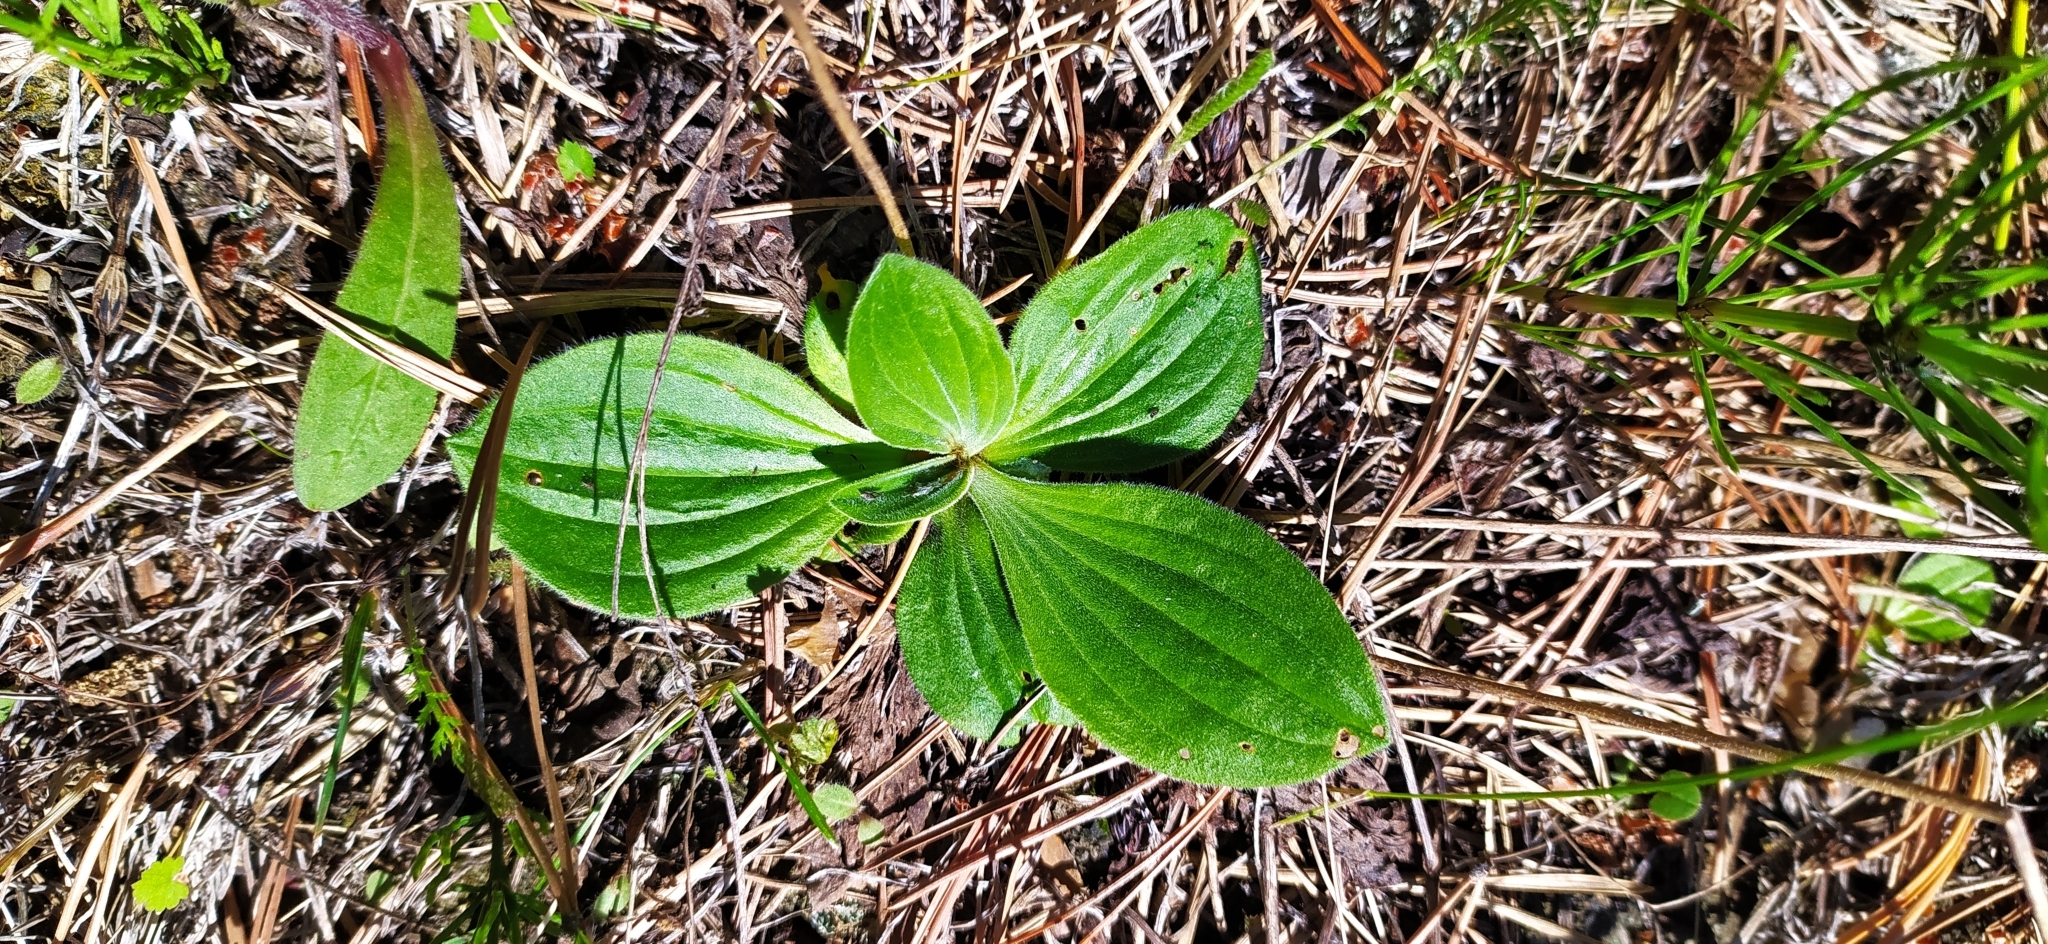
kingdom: Plantae
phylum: Tracheophyta
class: Magnoliopsida
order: Lamiales
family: Plantaginaceae
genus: Plantago
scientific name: Plantago media
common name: Hoary plantain
